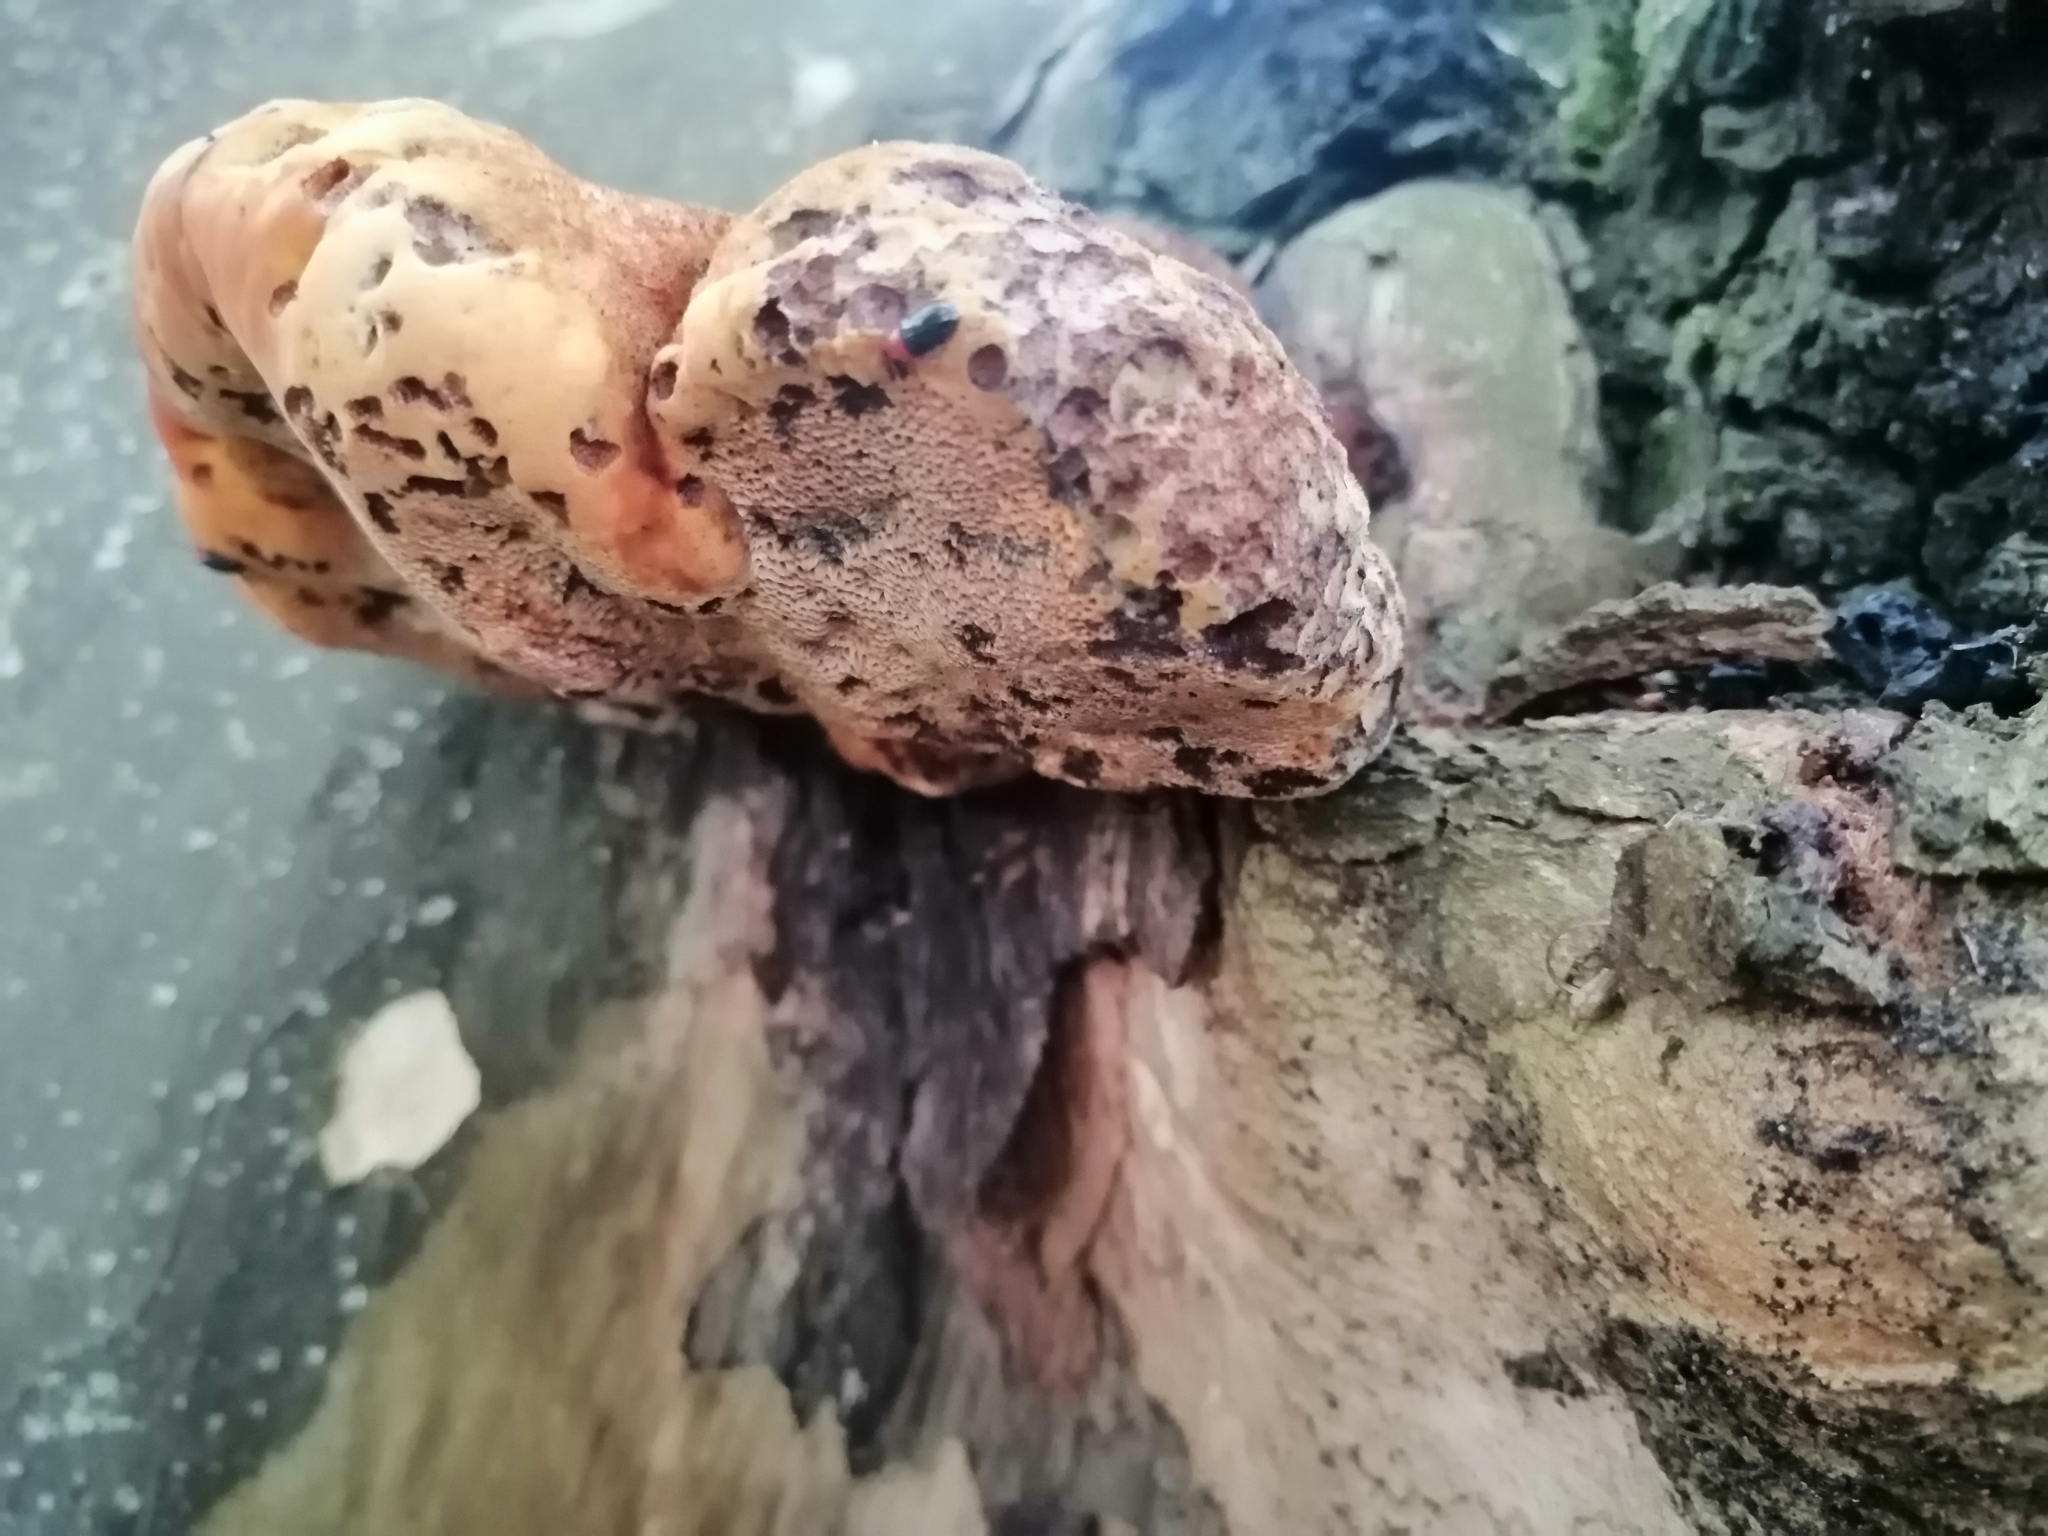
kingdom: Fungi
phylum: Basidiomycota
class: Agaricomycetes
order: Hymenochaetales
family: Hymenochaetaceae
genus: Inonotus
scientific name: Inonotus hispidus
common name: Shaggy bracket
